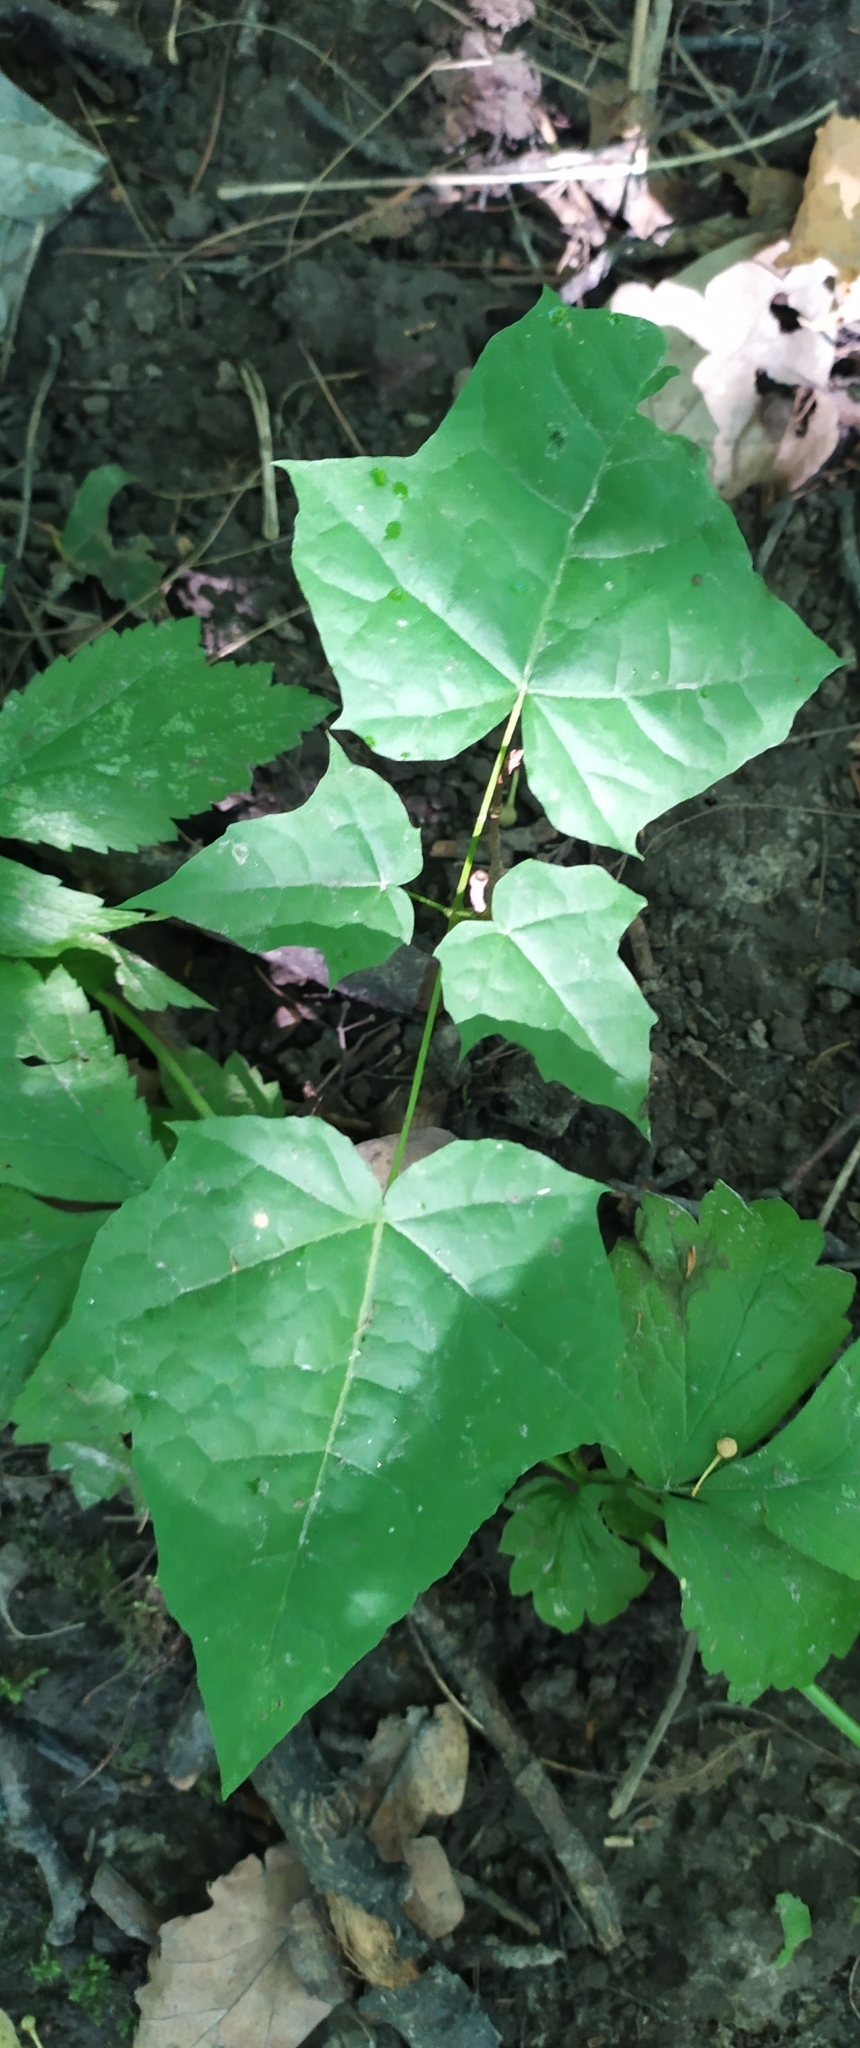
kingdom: Plantae
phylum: Tracheophyta
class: Magnoliopsida
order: Sapindales
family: Sapindaceae
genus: Acer
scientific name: Acer platanoides
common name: Norway maple
